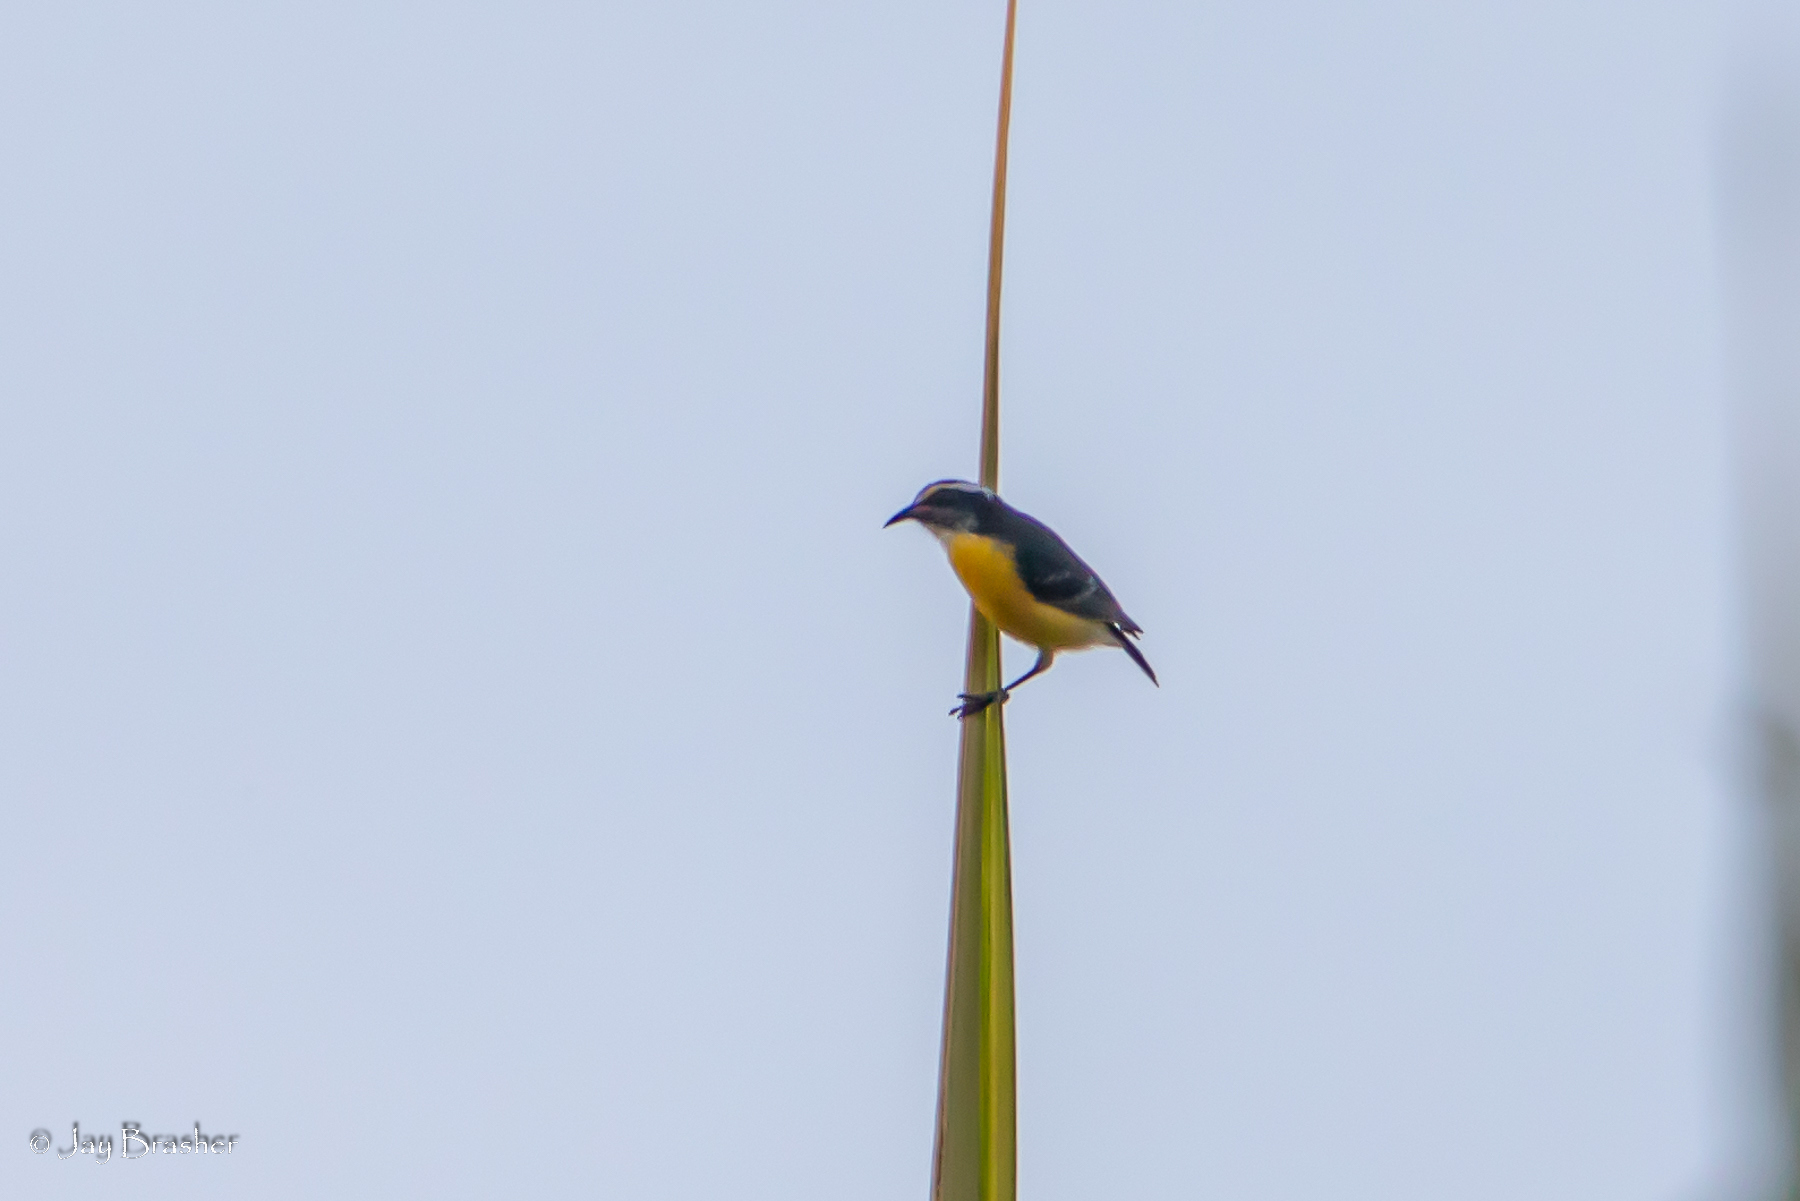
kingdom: Animalia
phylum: Chordata
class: Aves
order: Passeriformes
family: Thraupidae
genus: Coereba
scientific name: Coereba flaveola
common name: Bananaquit
